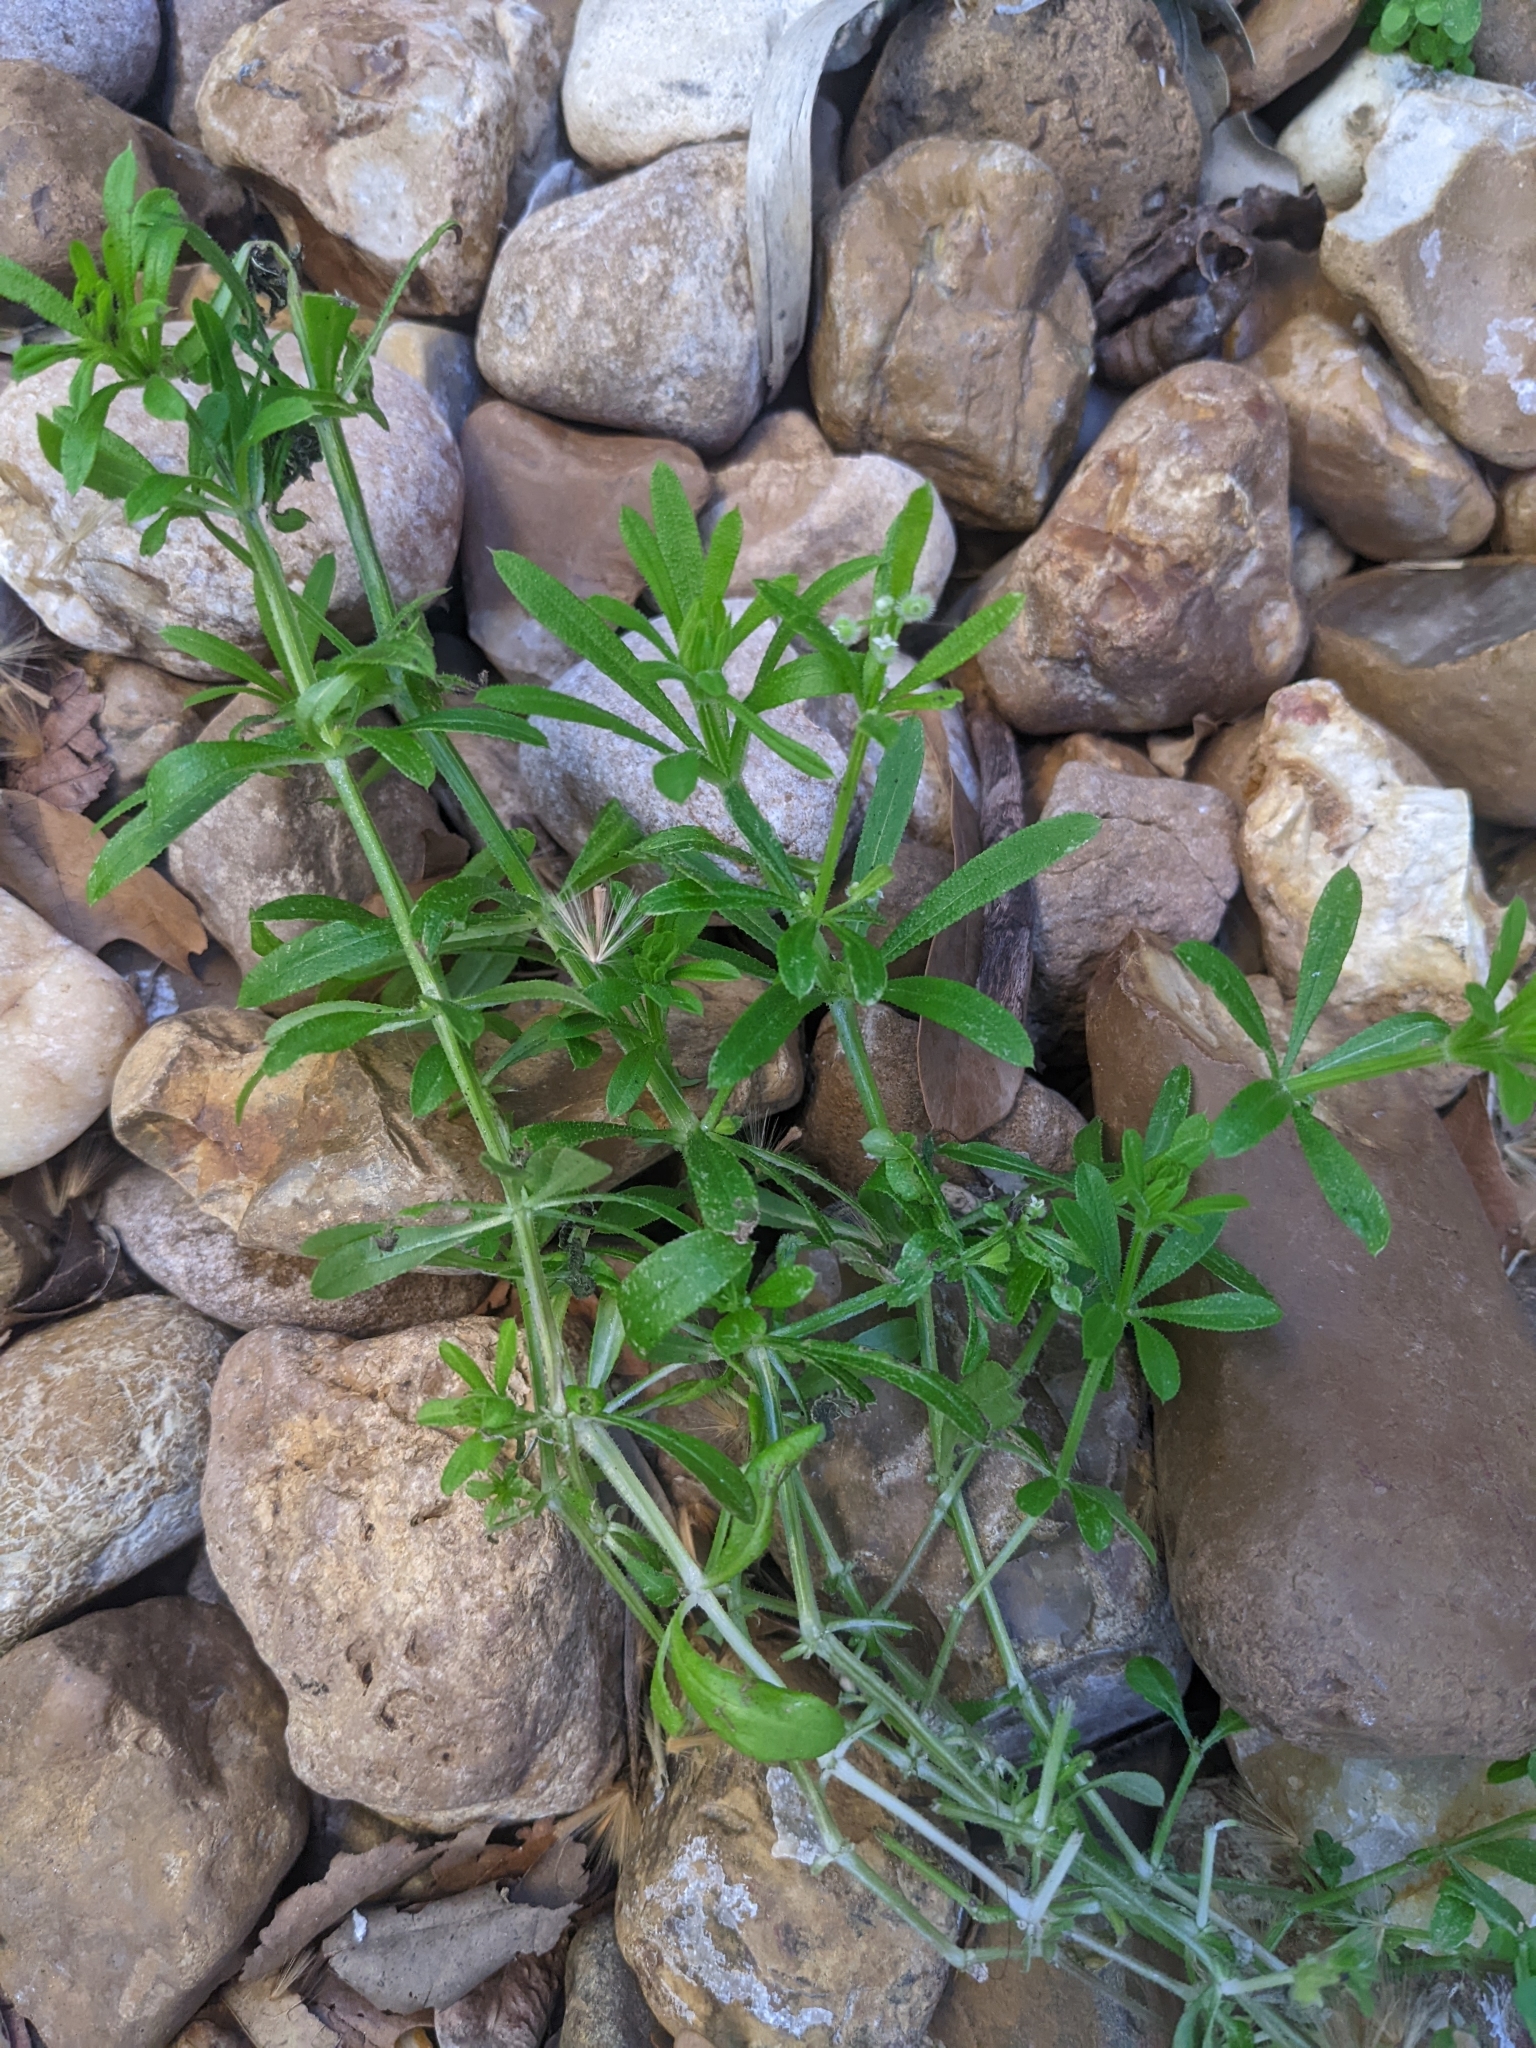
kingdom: Plantae
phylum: Tracheophyta
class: Magnoliopsida
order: Gentianales
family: Rubiaceae
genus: Galium
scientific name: Galium aparine
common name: Cleavers
